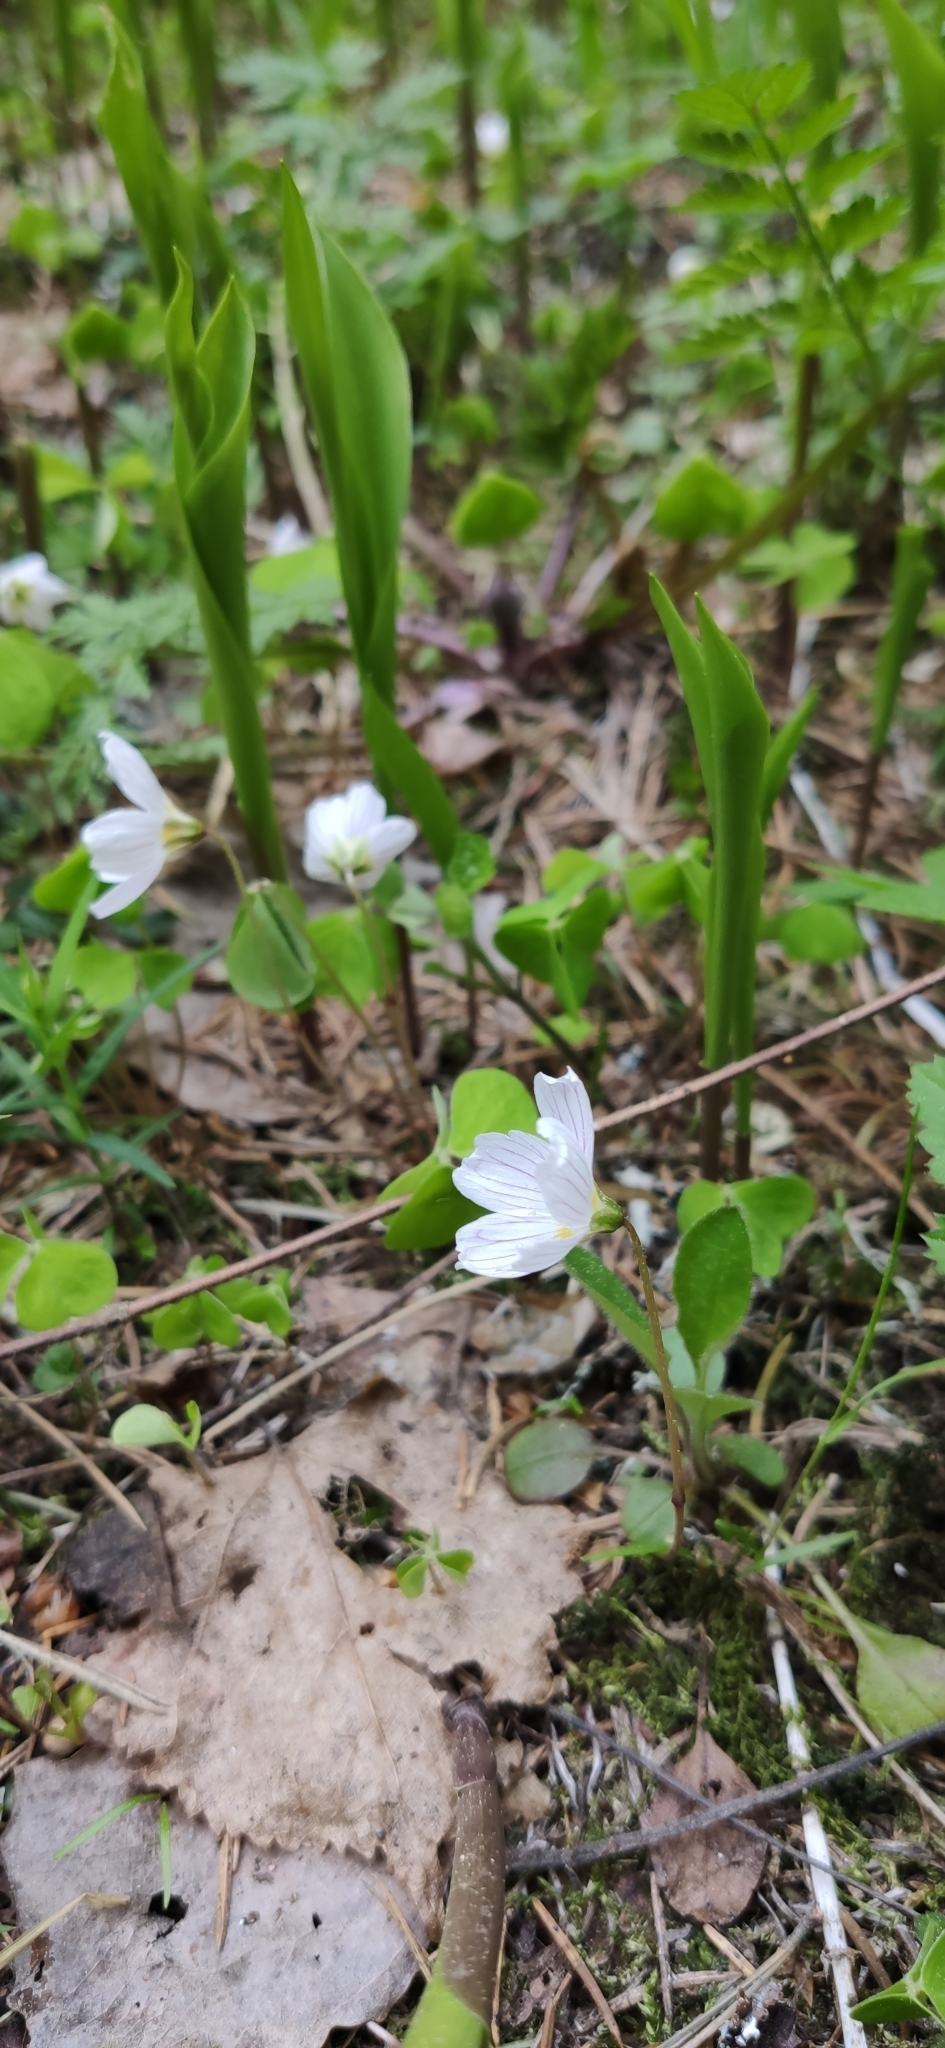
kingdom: Plantae
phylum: Tracheophyta
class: Magnoliopsida
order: Oxalidales
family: Oxalidaceae
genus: Oxalis
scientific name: Oxalis acetosella
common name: Wood-sorrel
